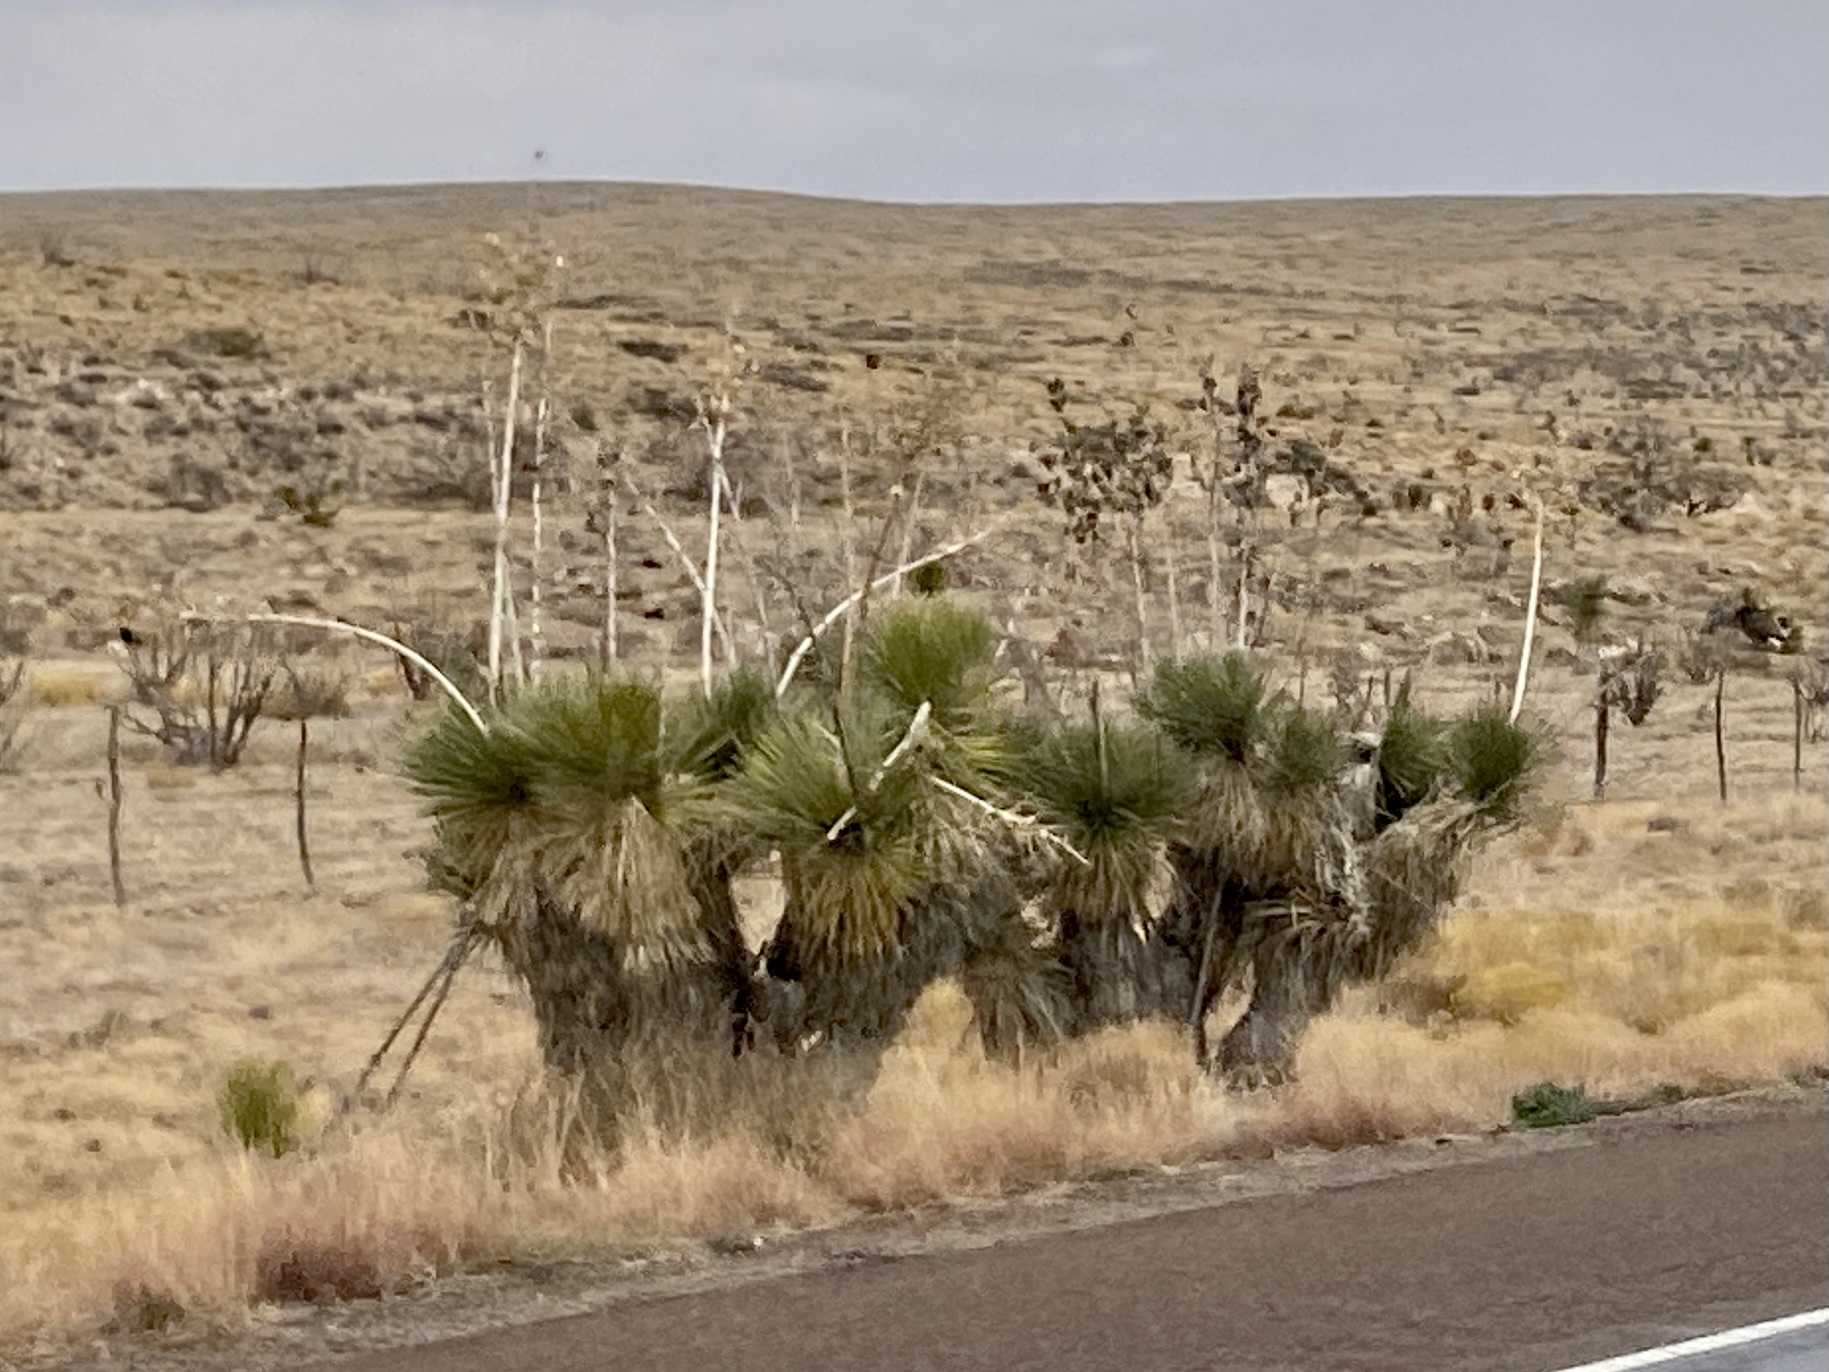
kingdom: Plantae
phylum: Tracheophyta
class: Liliopsida
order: Asparagales
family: Asparagaceae
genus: Yucca
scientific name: Yucca elata
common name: Palmella
